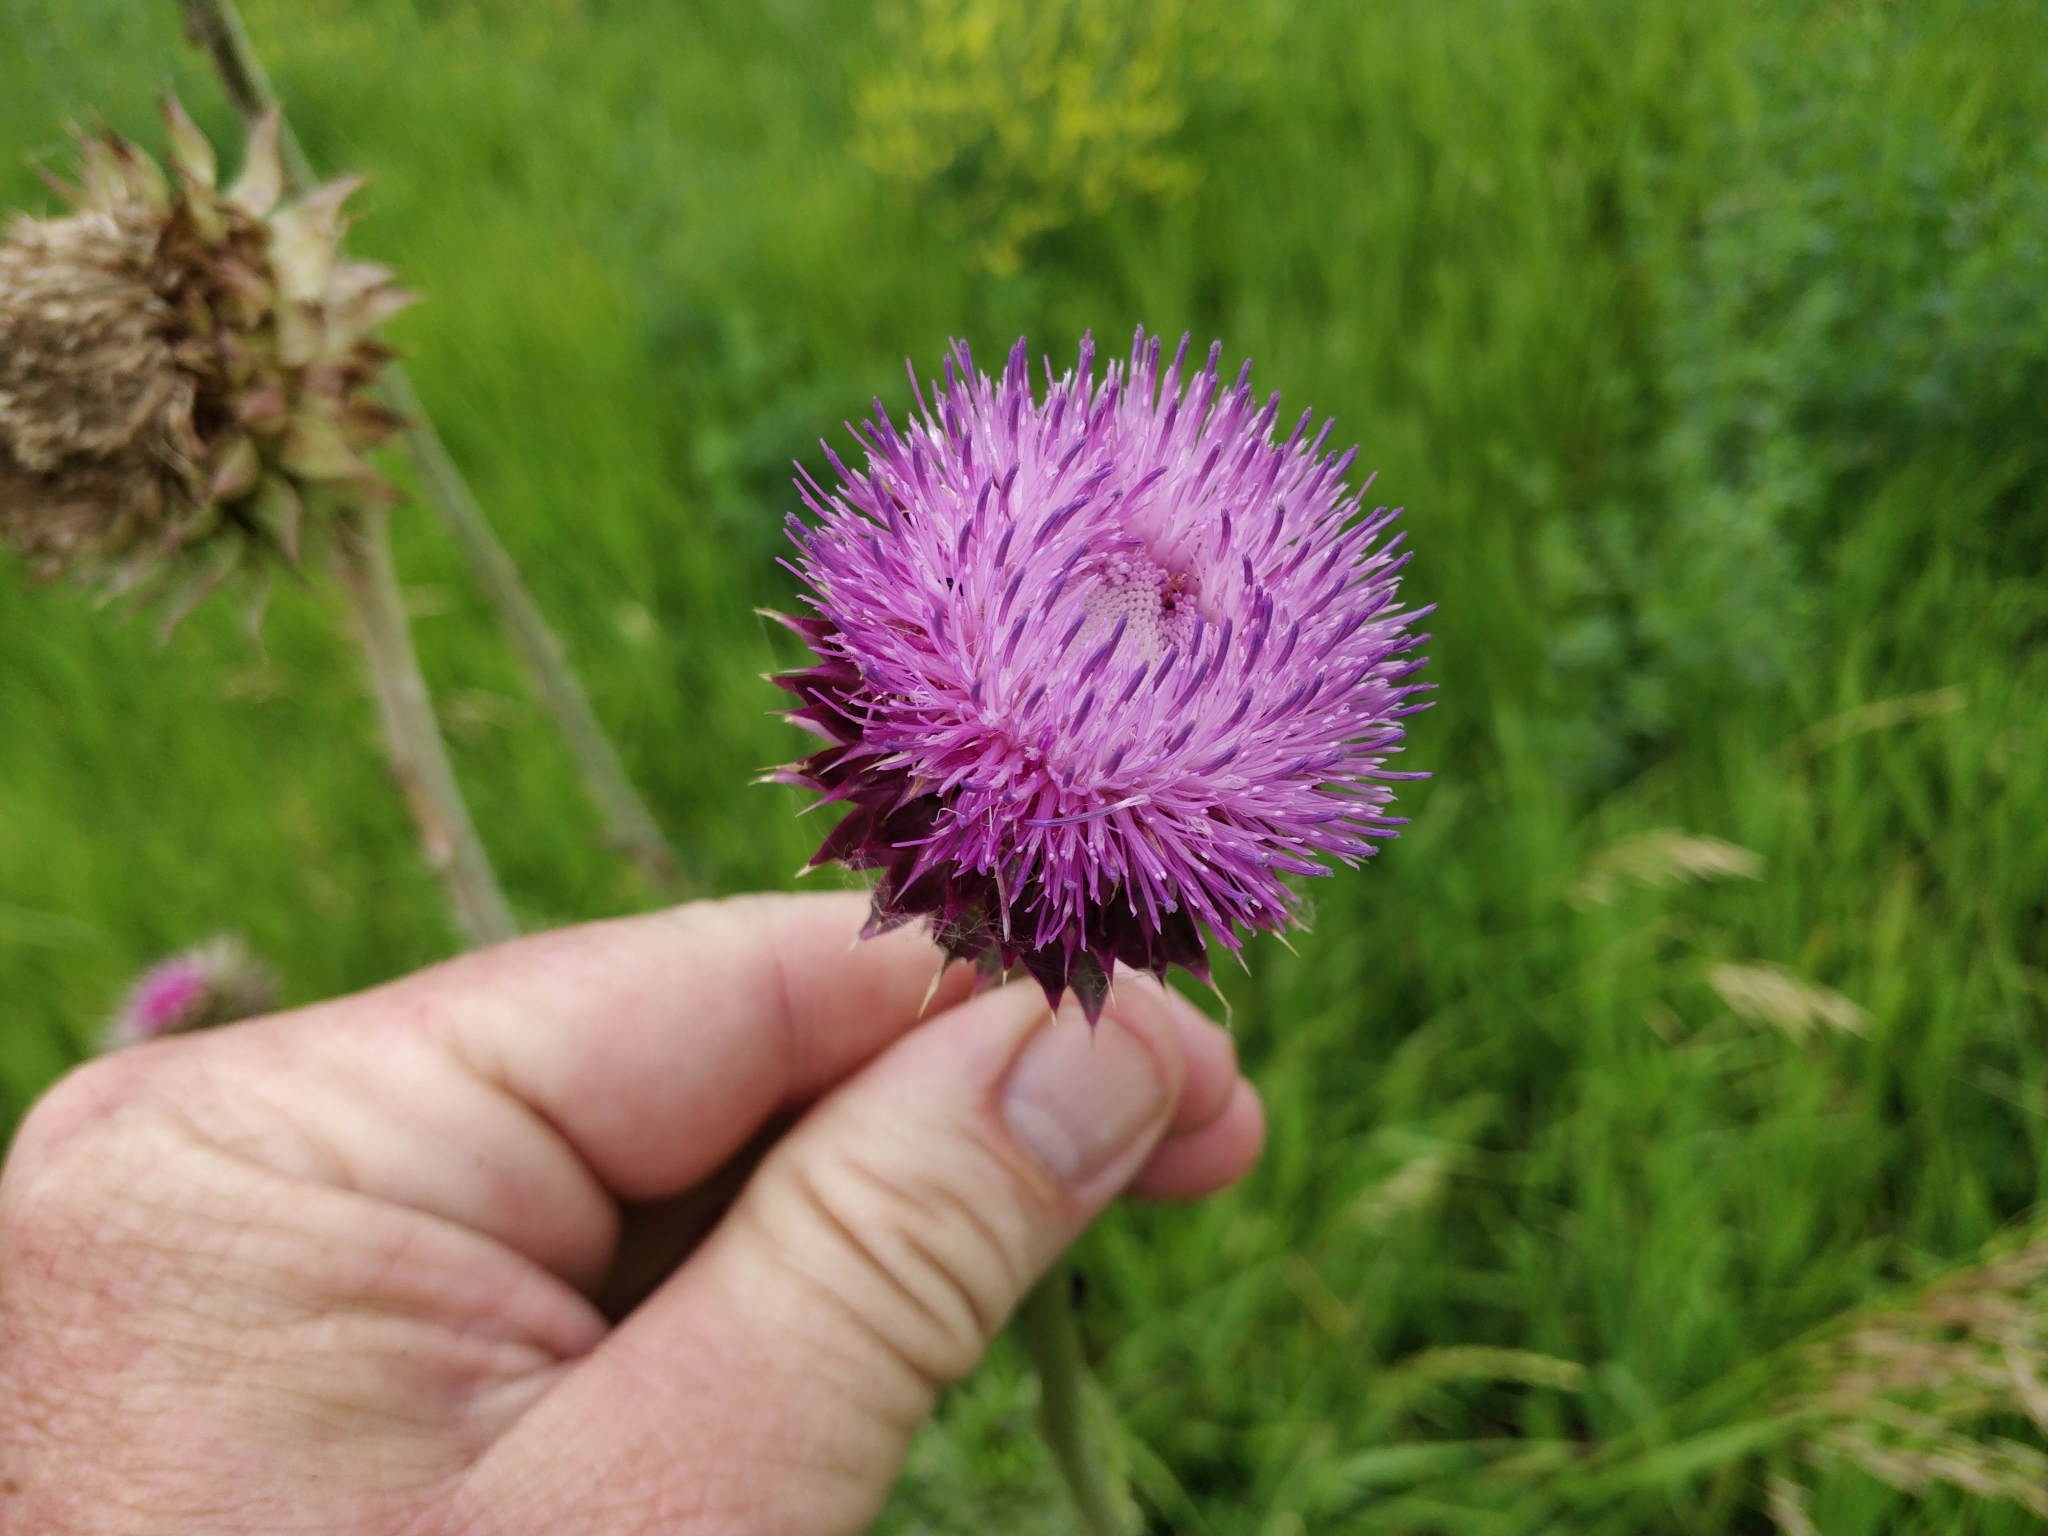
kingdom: Plantae
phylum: Tracheophyta
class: Magnoliopsida
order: Asterales
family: Asteraceae
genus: Carduus
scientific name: Carduus nutans
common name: Musk thistle
